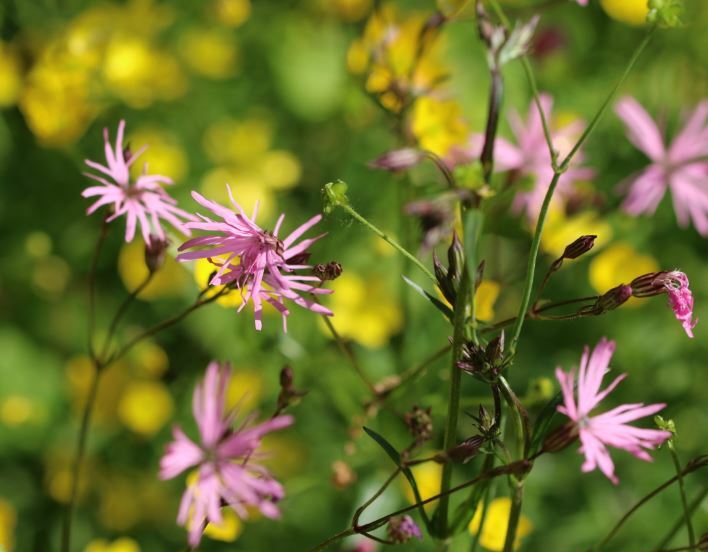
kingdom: Plantae
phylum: Tracheophyta
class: Magnoliopsida
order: Caryophyllales
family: Caryophyllaceae
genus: Silene
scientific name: Silene flos-cuculi
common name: Ragged-robin
